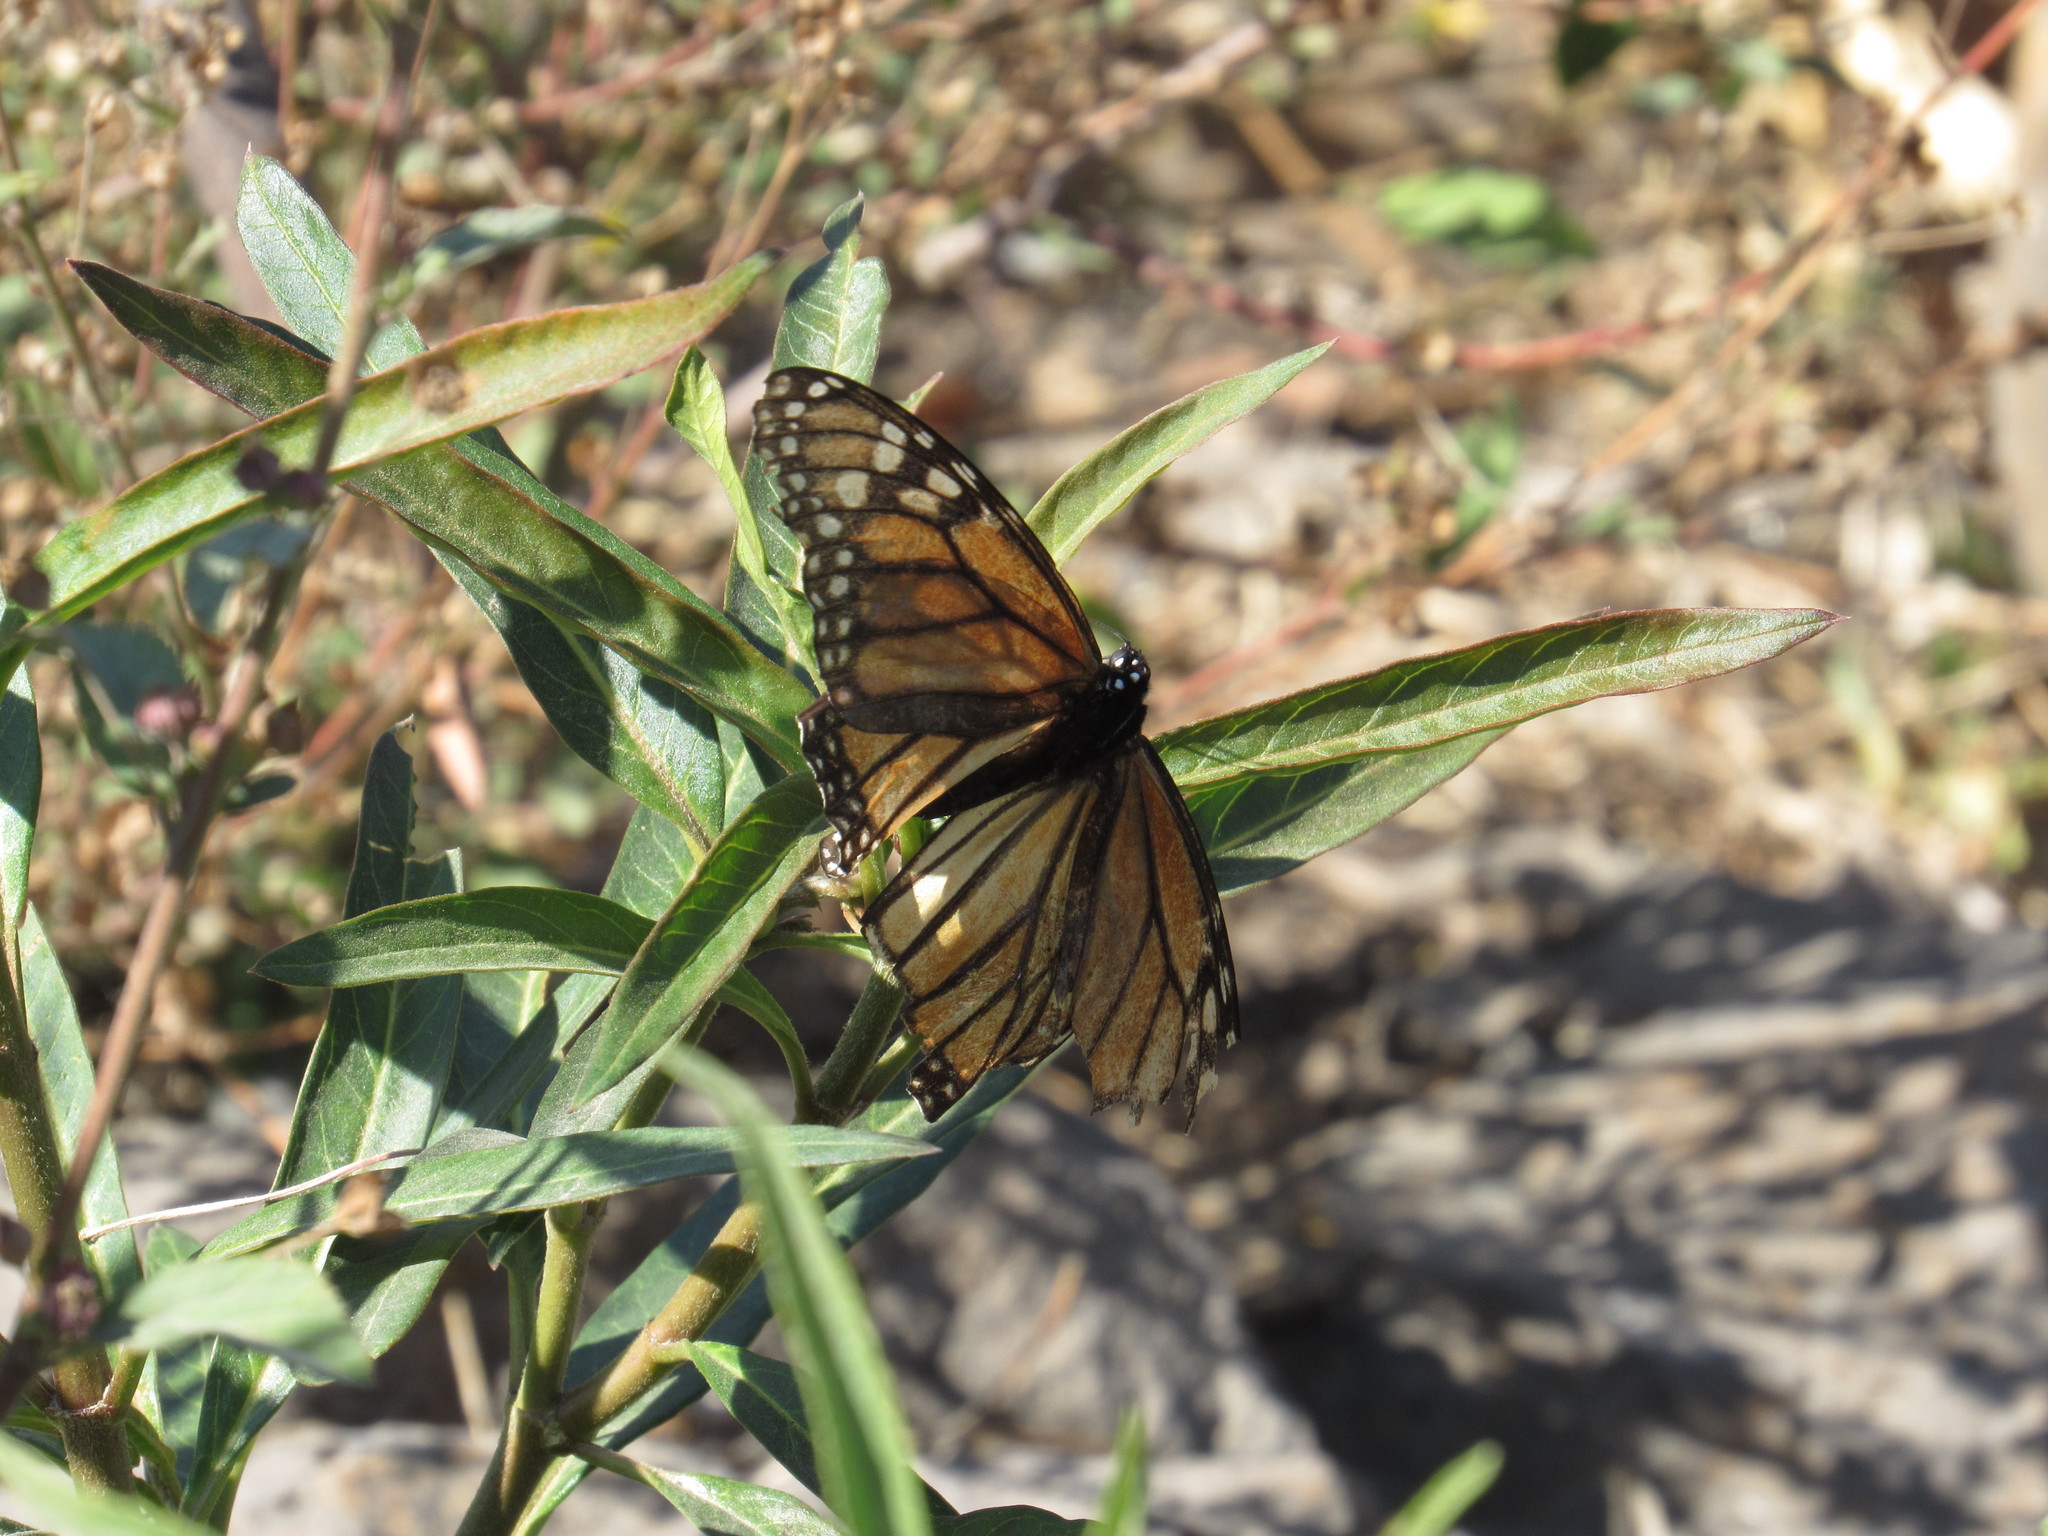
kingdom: Animalia
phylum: Arthropoda
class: Insecta
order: Lepidoptera
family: Nymphalidae
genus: Danaus
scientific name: Danaus plexippus
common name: Monarch
